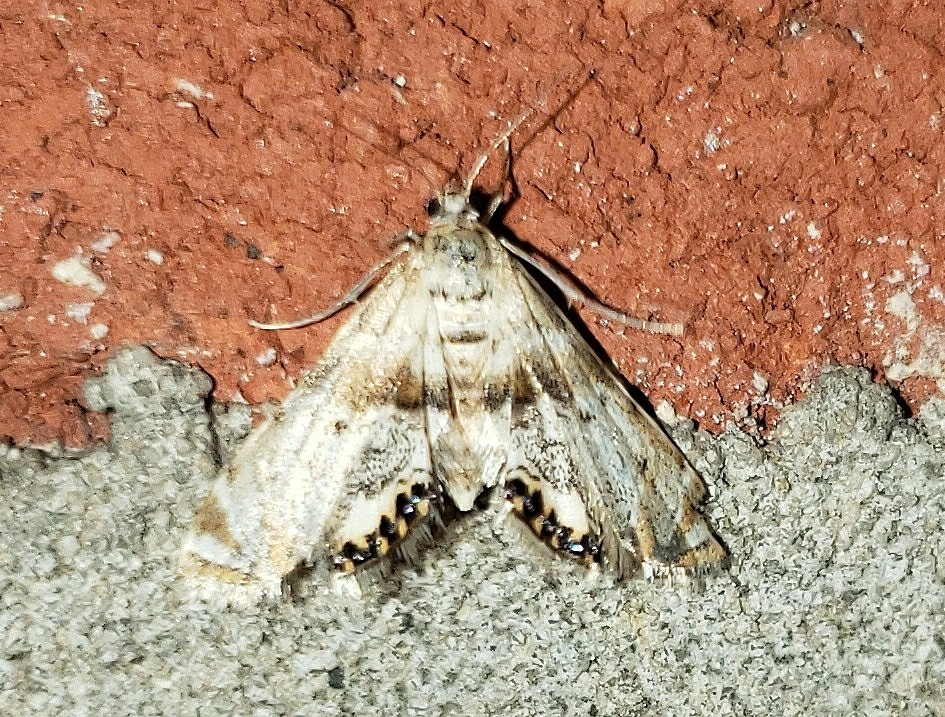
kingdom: Animalia
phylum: Arthropoda
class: Insecta
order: Lepidoptera
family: Crambidae
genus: Petrophila
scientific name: Petrophila fulicalis
